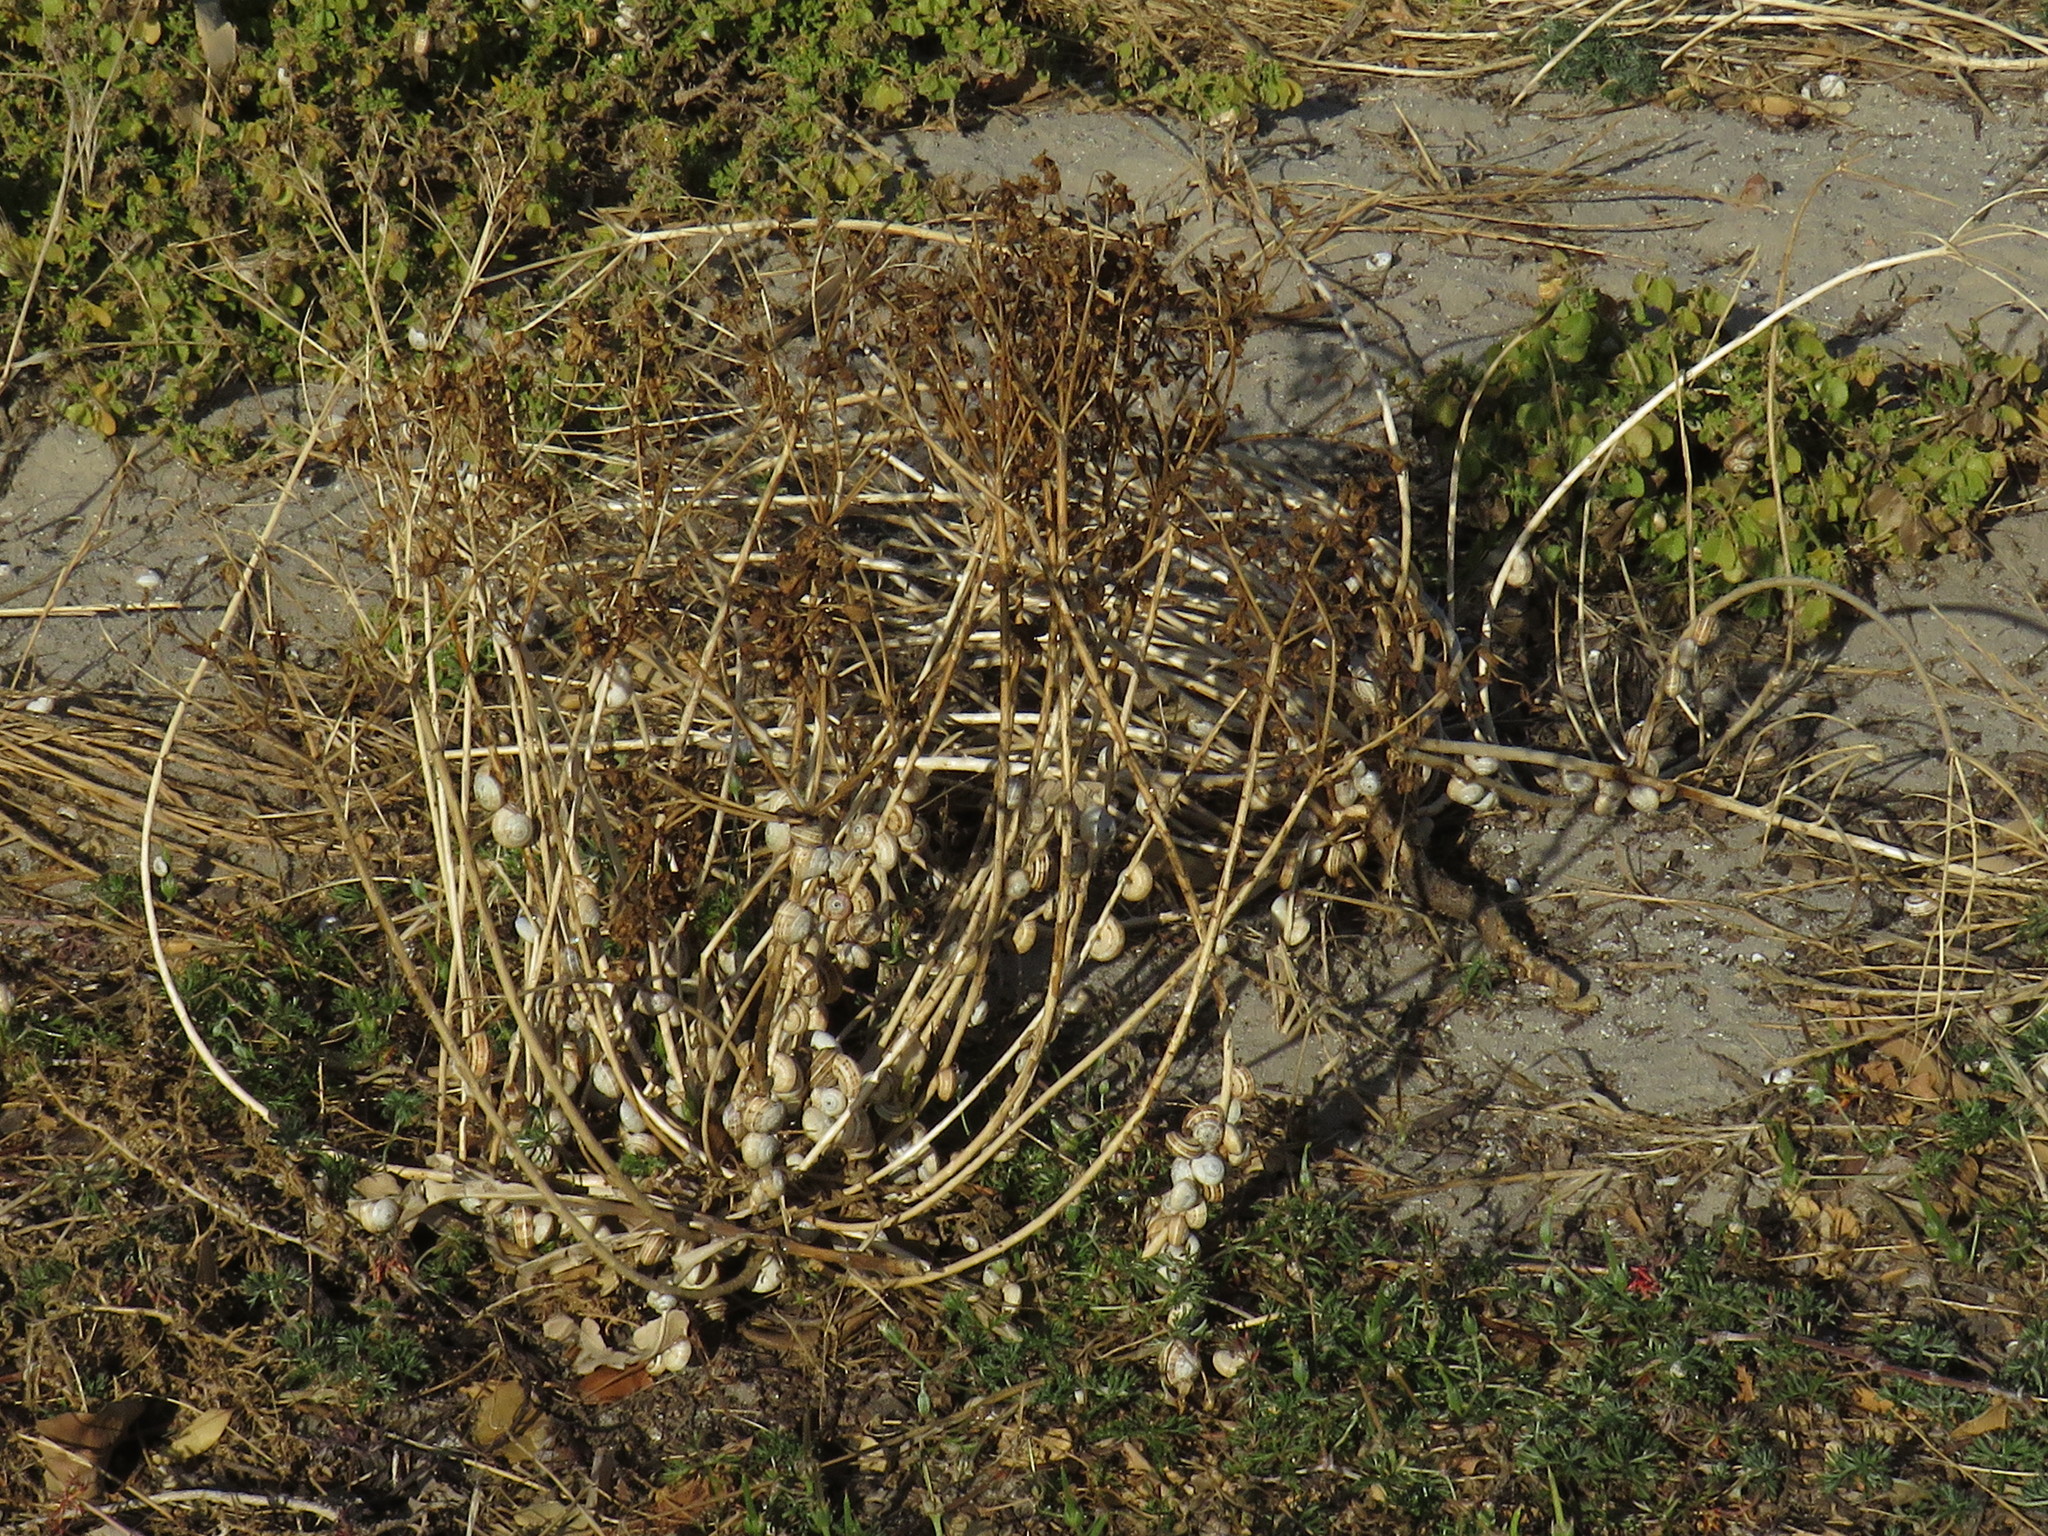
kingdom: Animalia
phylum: Mollusca
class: Gastropoda
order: Stylommatophora
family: Helicidae
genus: Theba
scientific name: Theba pisana
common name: White snail
